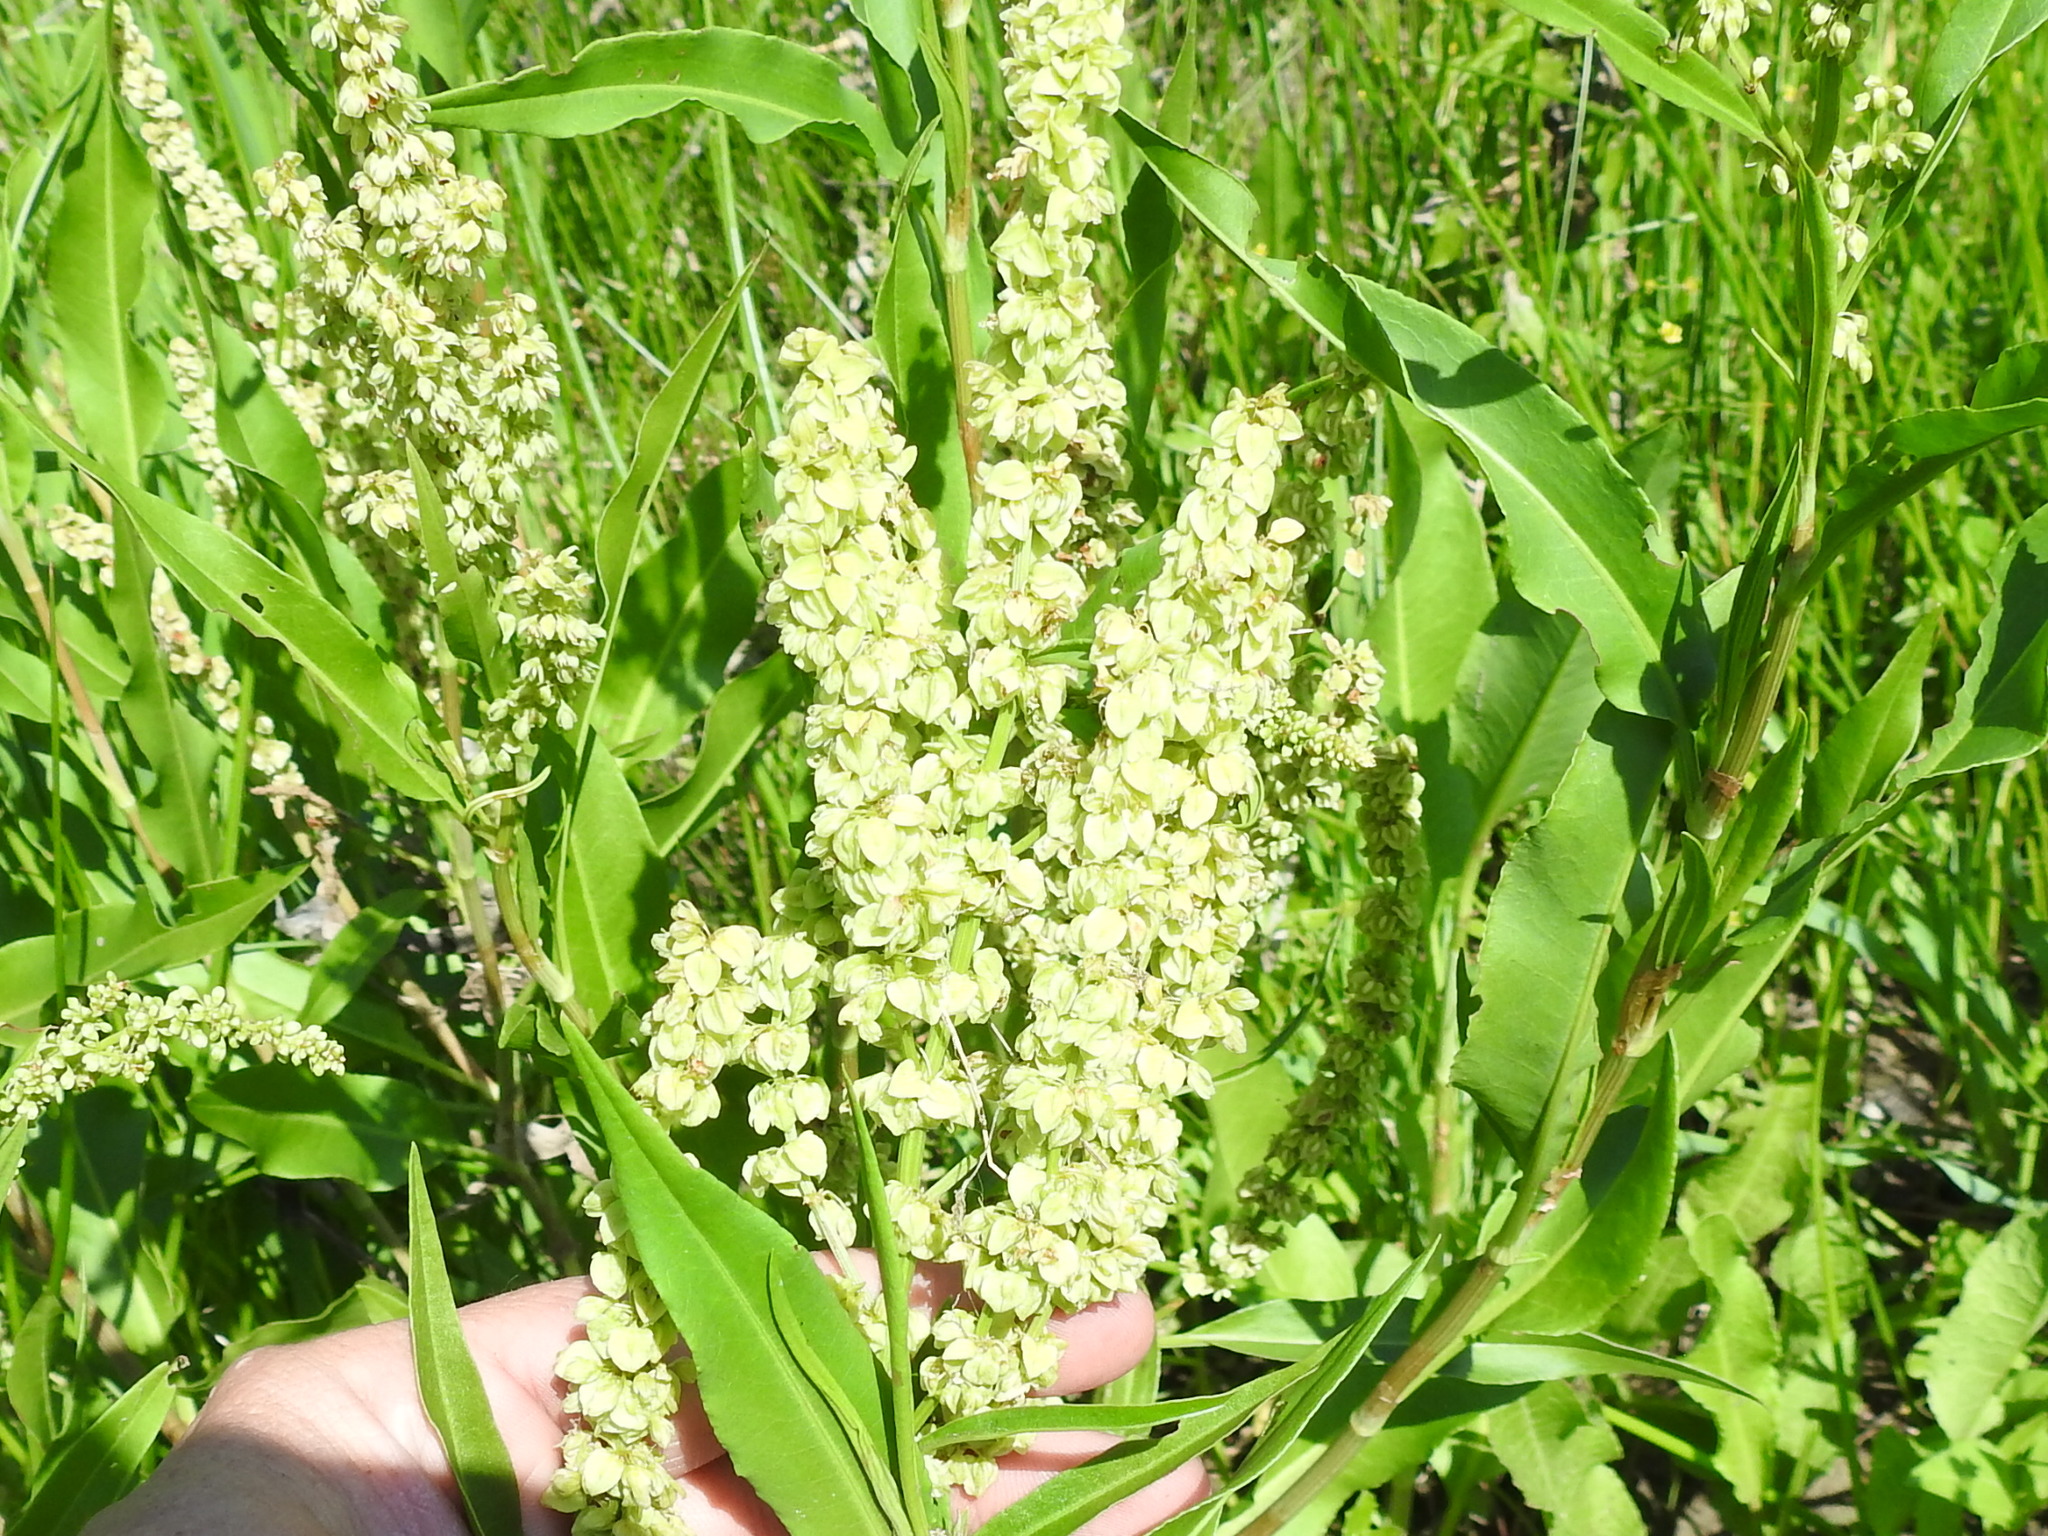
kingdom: Plantae
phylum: Tracheophyta
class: Magnoliopsida
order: Caryophyllales
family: Polygonaceae
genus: Rumex
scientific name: Rumex crispus
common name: Curled dock
